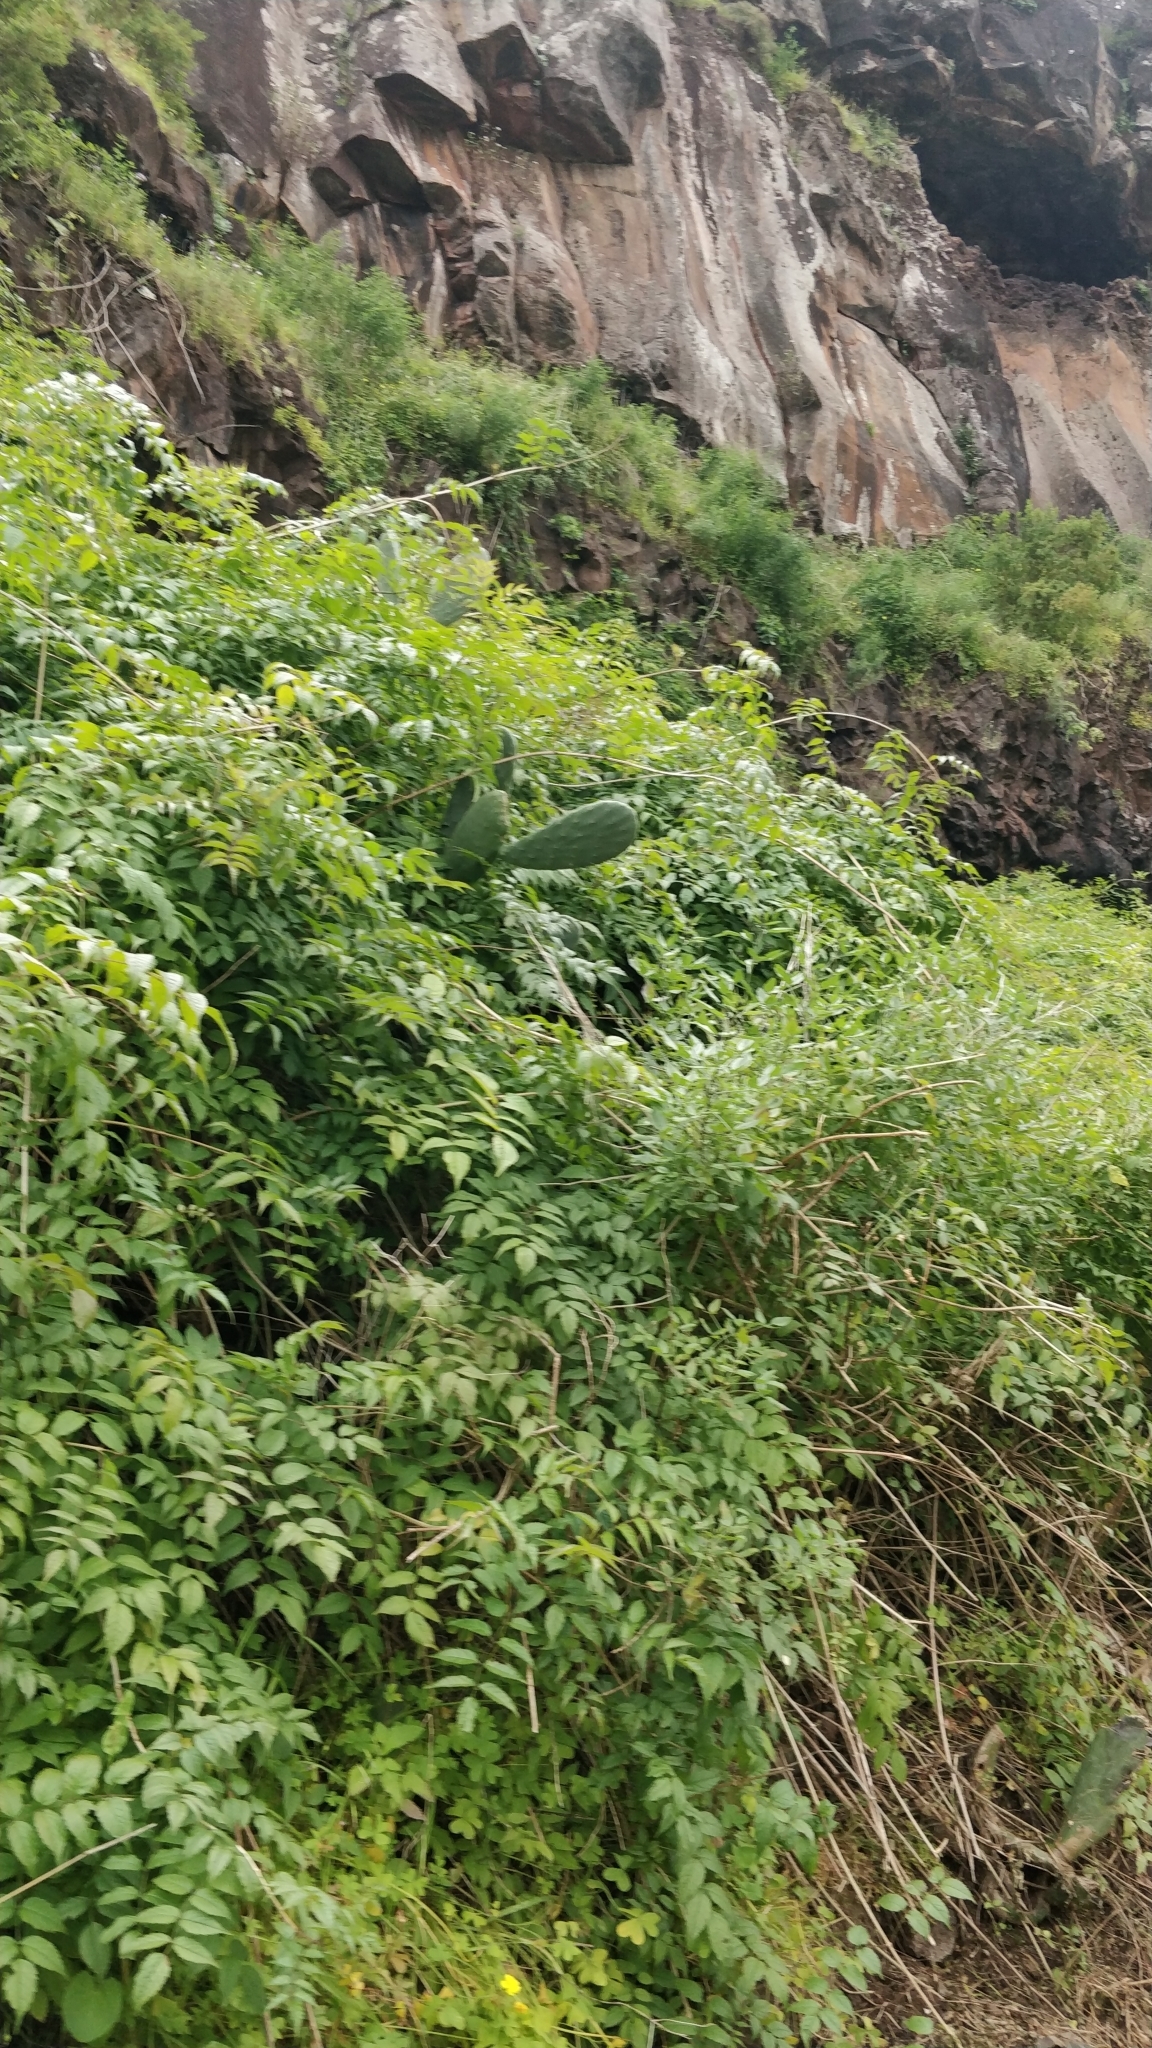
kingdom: Plantae
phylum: Tracheophyta
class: Magnoliopsida
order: Lamiales
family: Bignoniaceae
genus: Podranea
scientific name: Podranea ricasoliana
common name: Zimbabwe creeper
